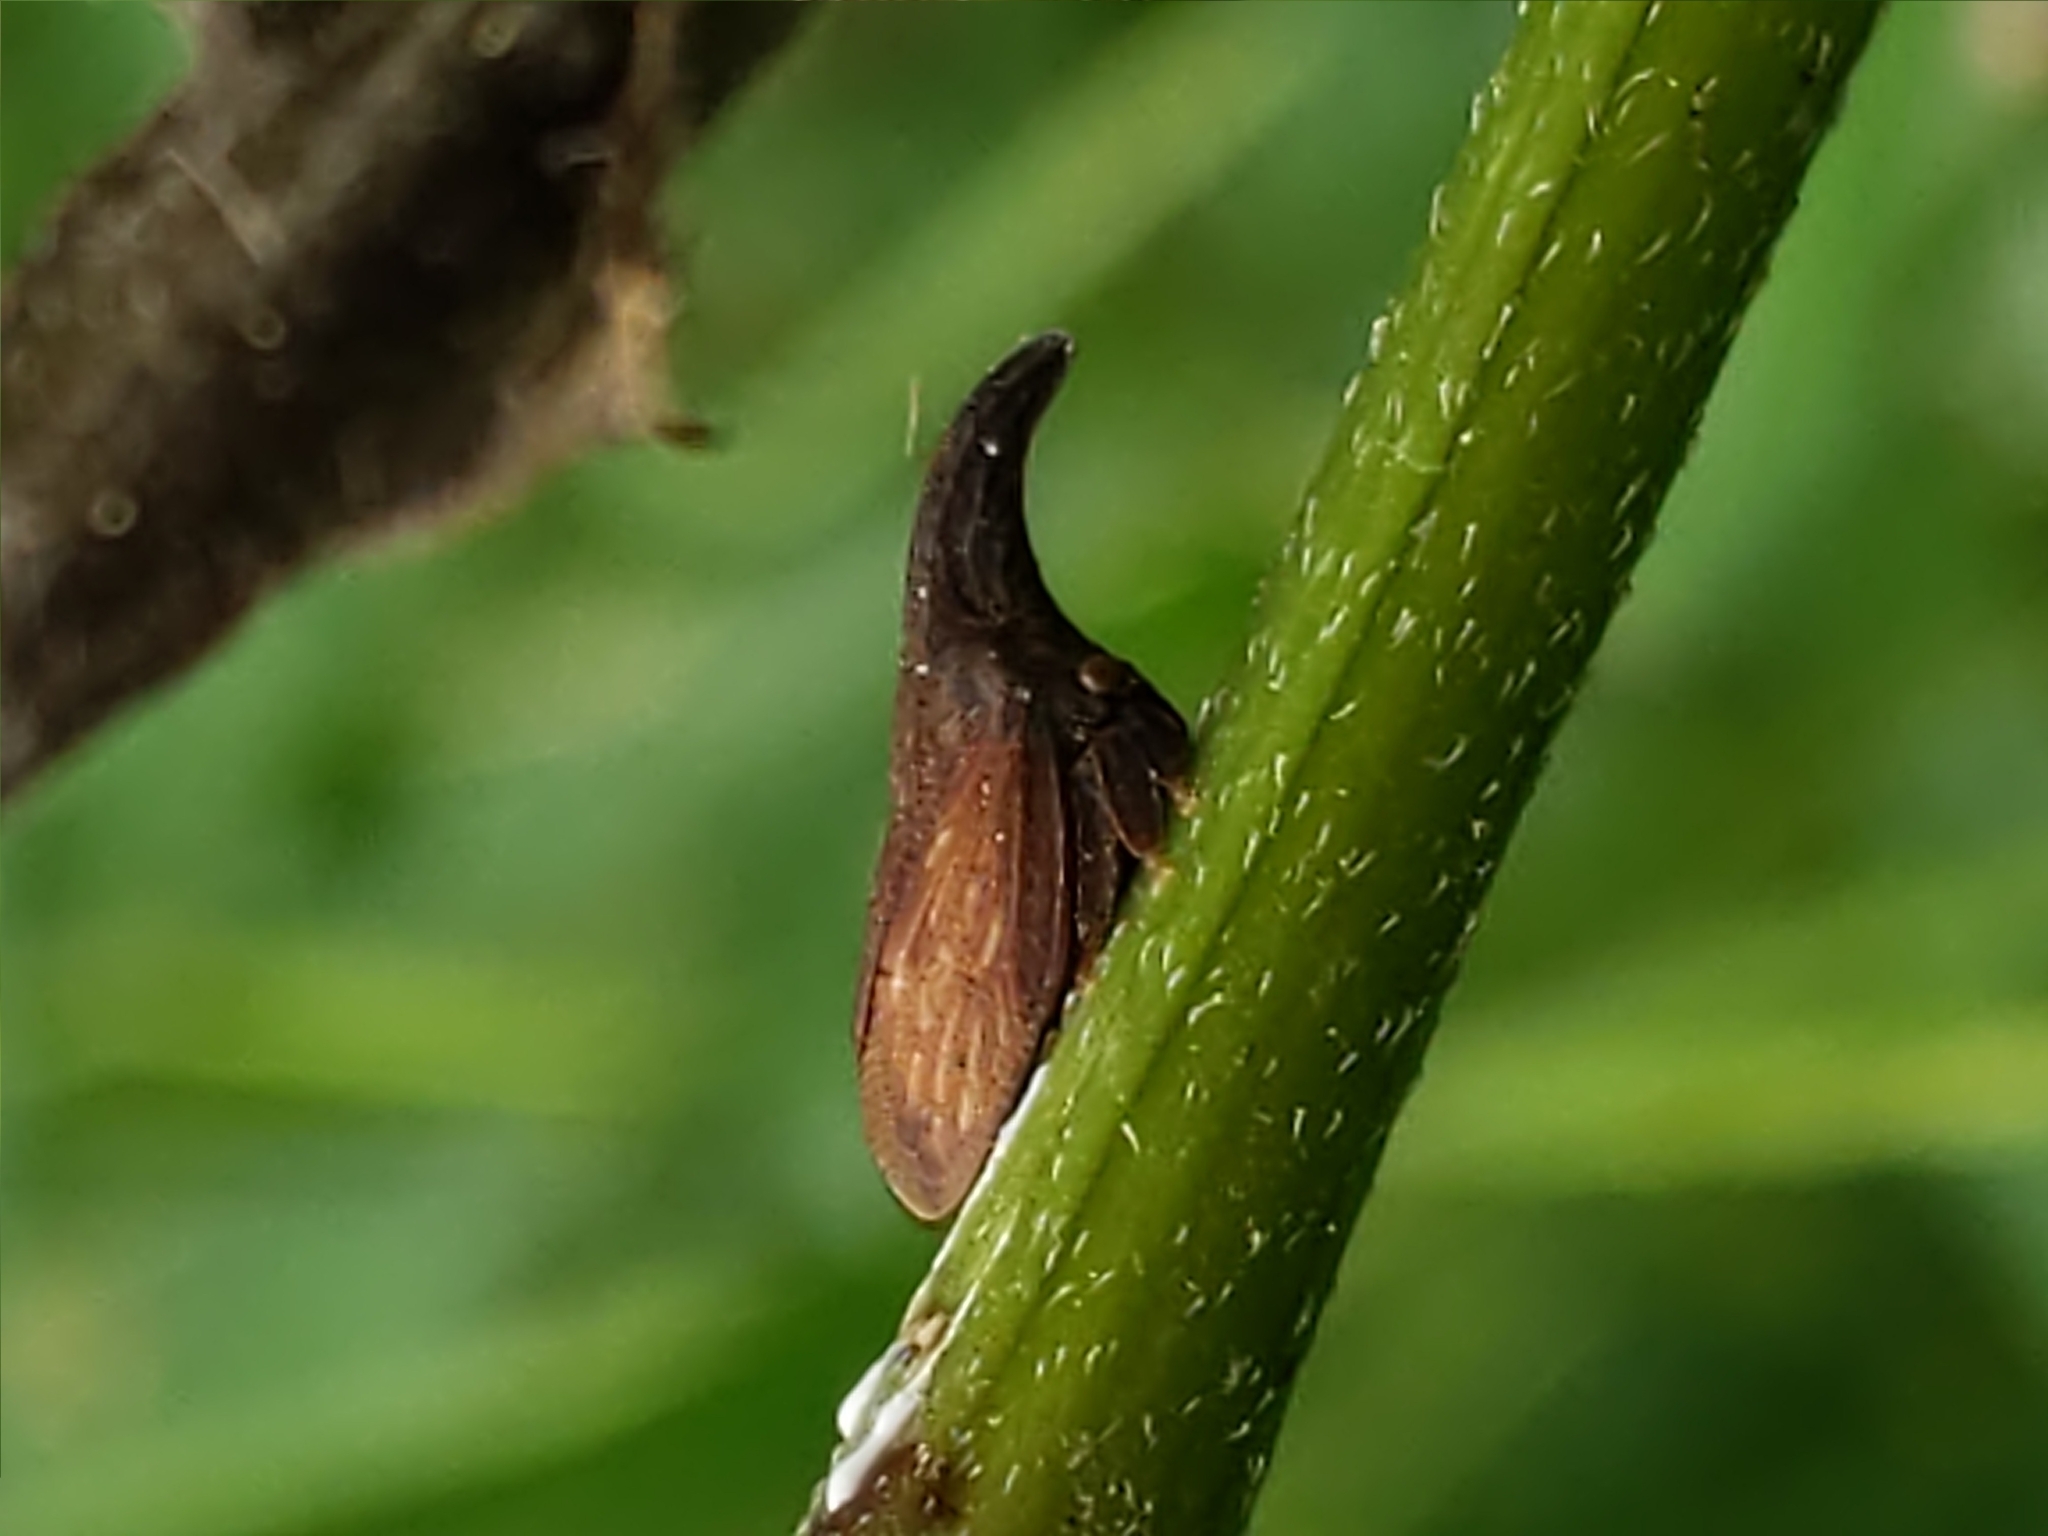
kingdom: Animalia
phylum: Arthropoda
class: Insecta
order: Hemiptera
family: Membracidae
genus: Enchenopa
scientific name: Enchenopa latipes
